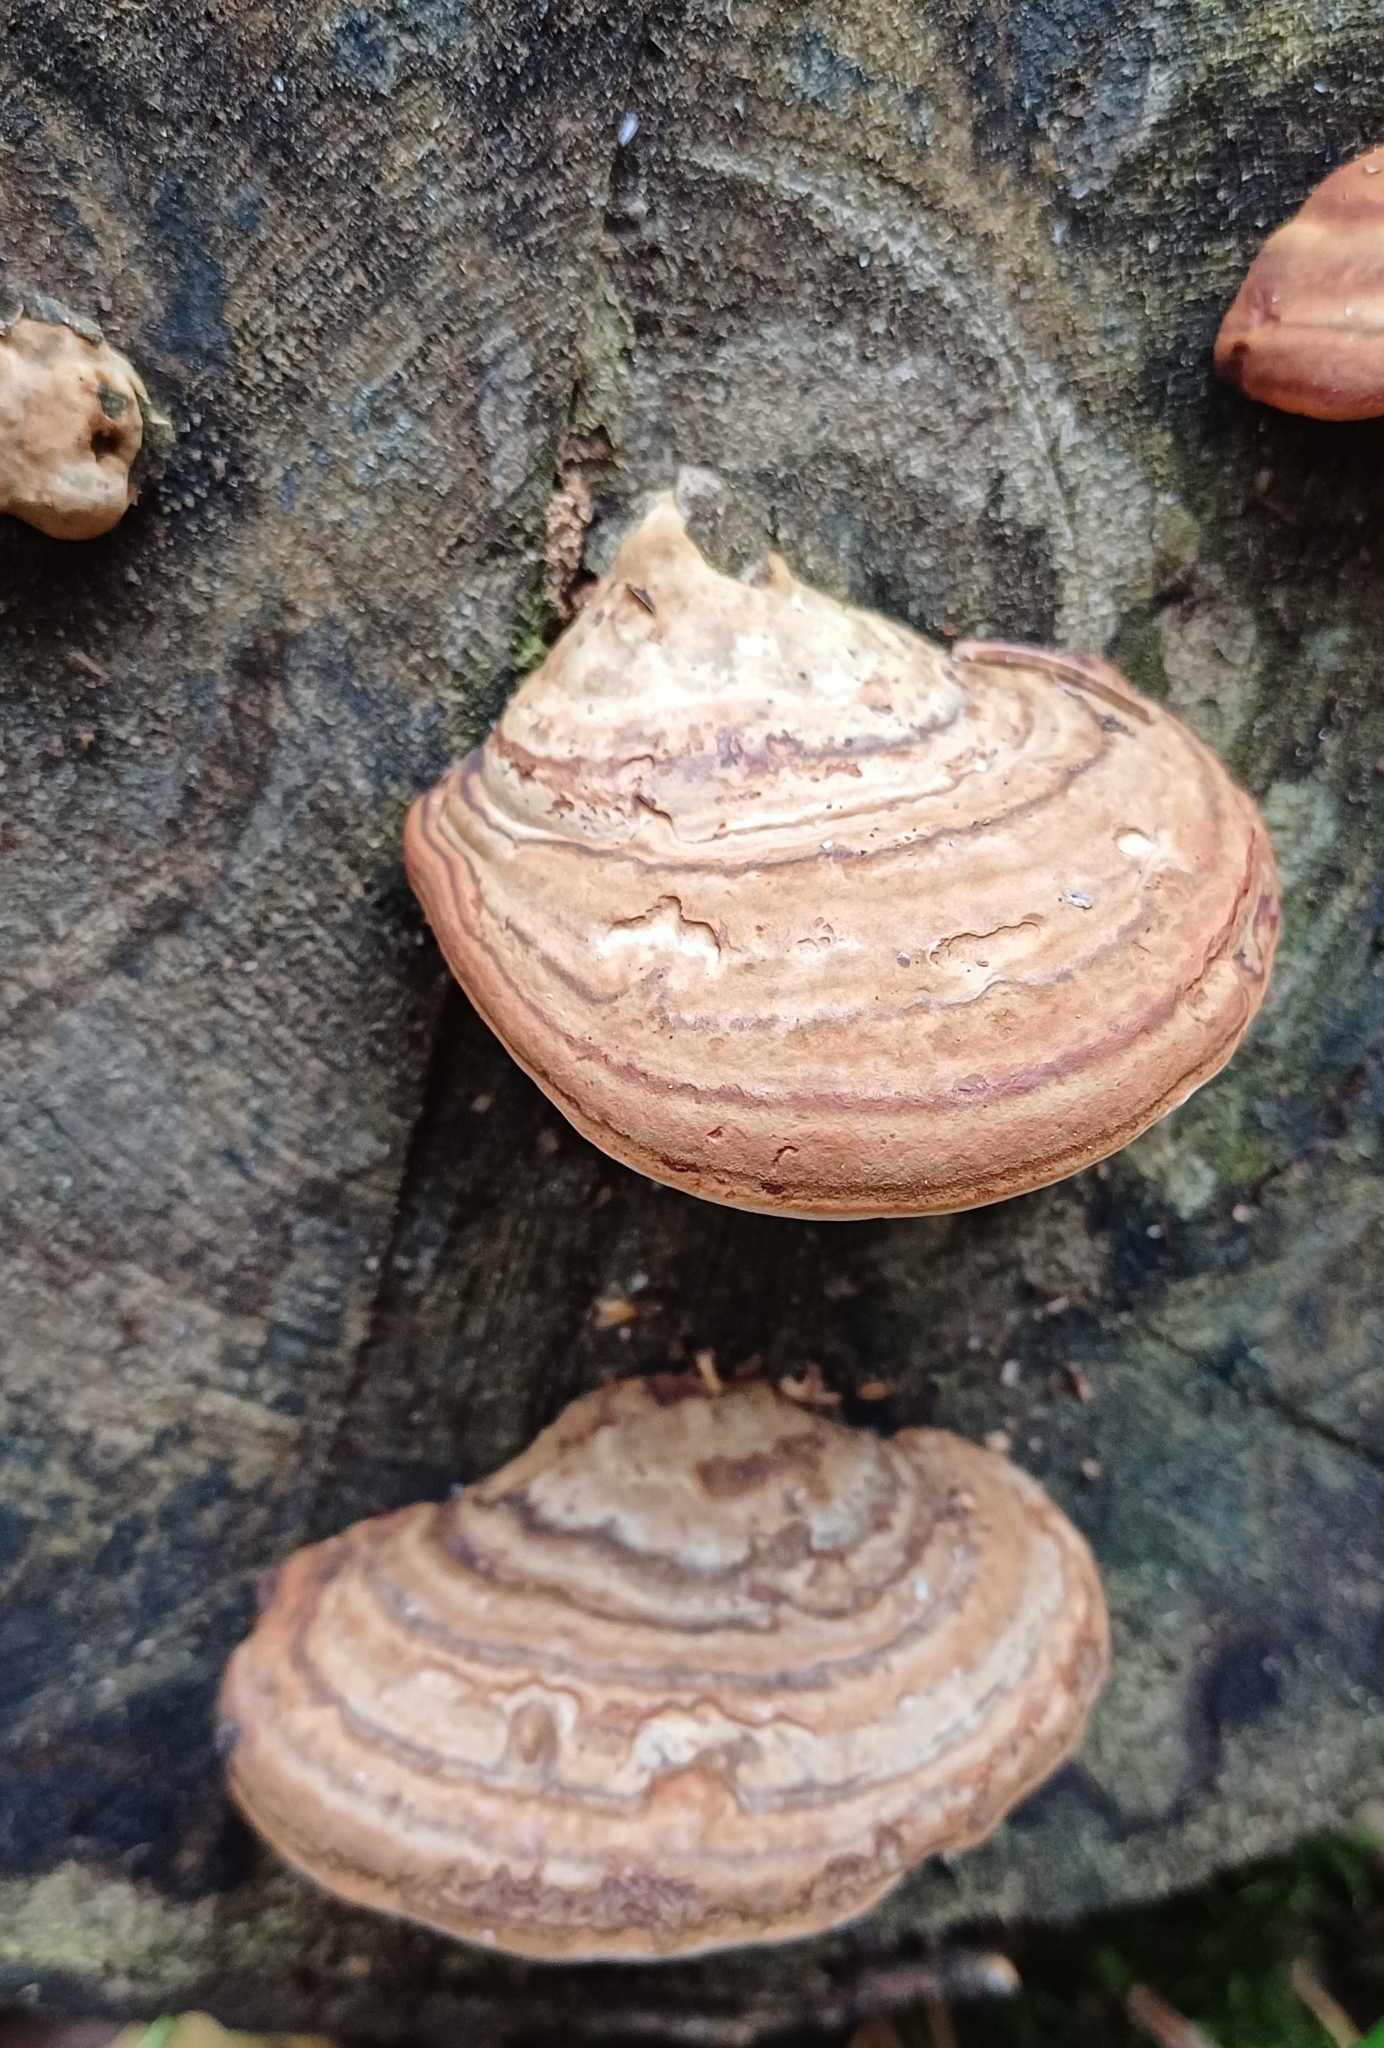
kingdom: Fungi
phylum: Basidiomycota
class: Agaricomycetes
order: Polyporales
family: Polyporaceae
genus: Fomes
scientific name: Fomes fomentarius
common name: Hoof fungus
